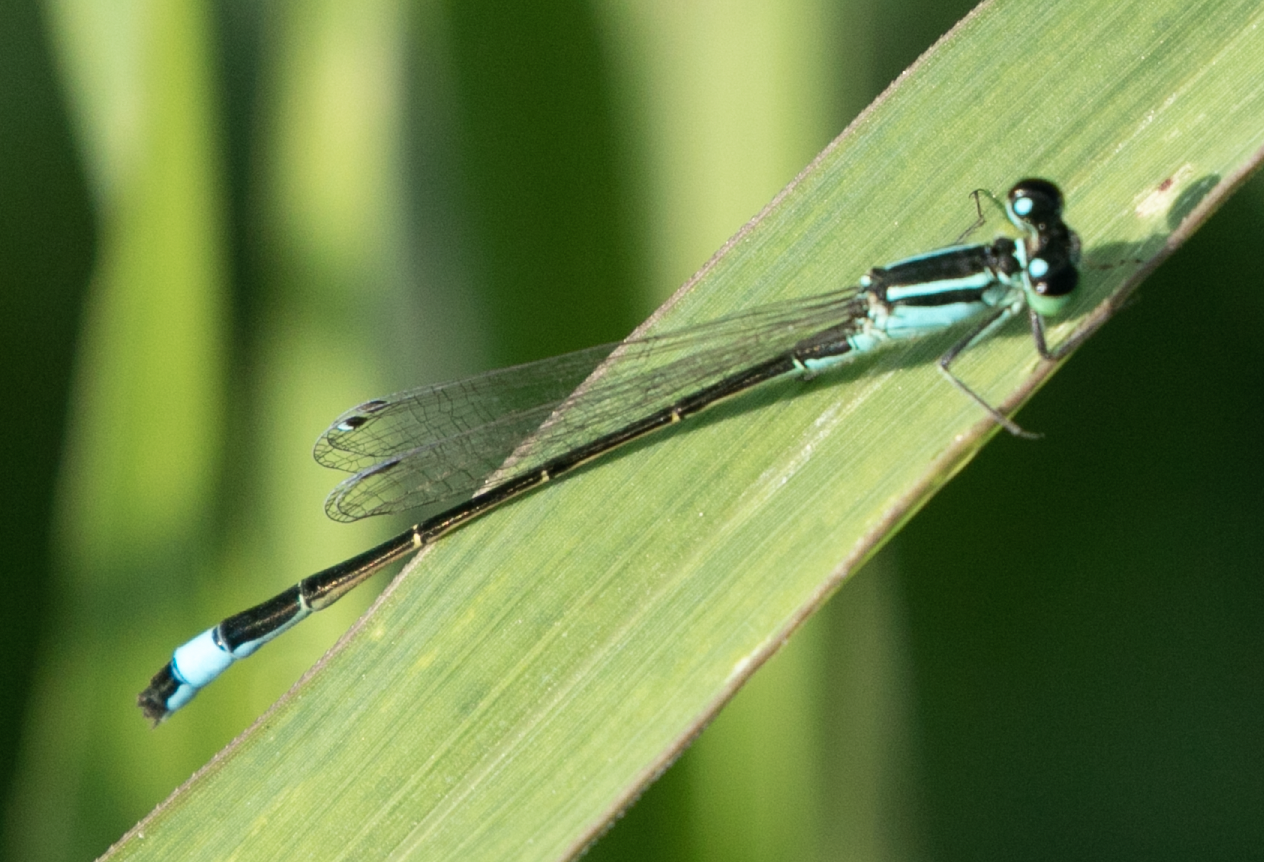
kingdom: Animalia
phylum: Arthropoda
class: Insecta
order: Odonata
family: Coenagrionidae
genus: Ischnura
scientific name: Ischnura elegans
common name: Blue-tailed damselfly
